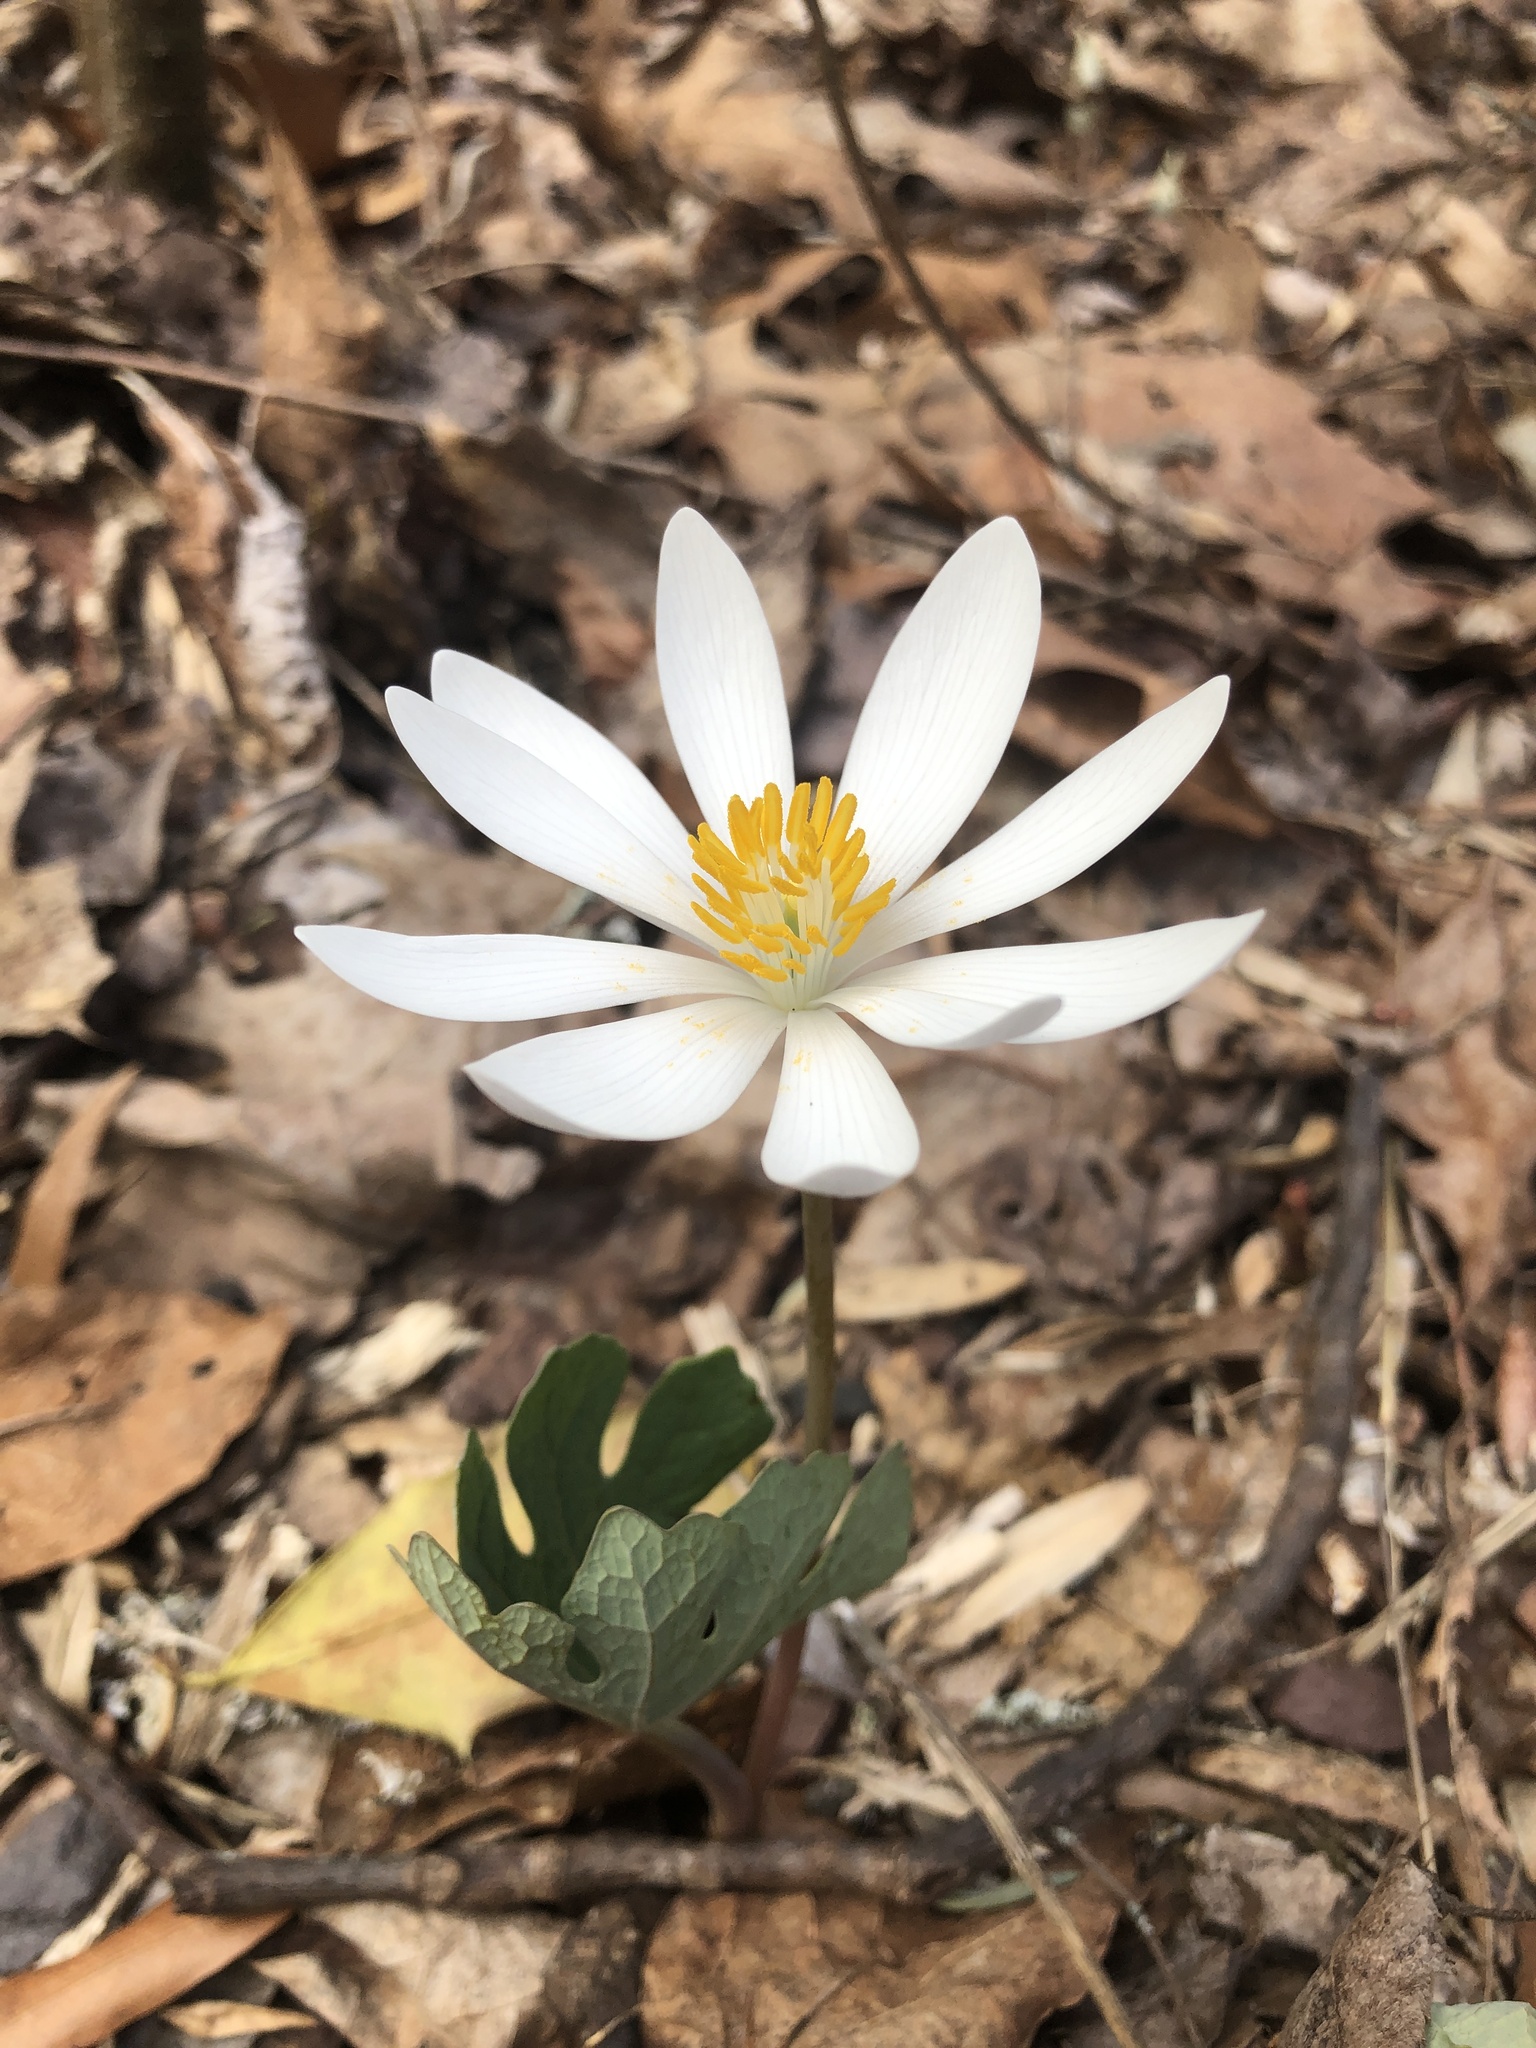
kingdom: Plantae
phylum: Tracheophyta
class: Magnoliopsida
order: Ranunculales
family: Papaveraceae
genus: Sanguinaria
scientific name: Sanguinaria canadensis
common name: Bloodroot
